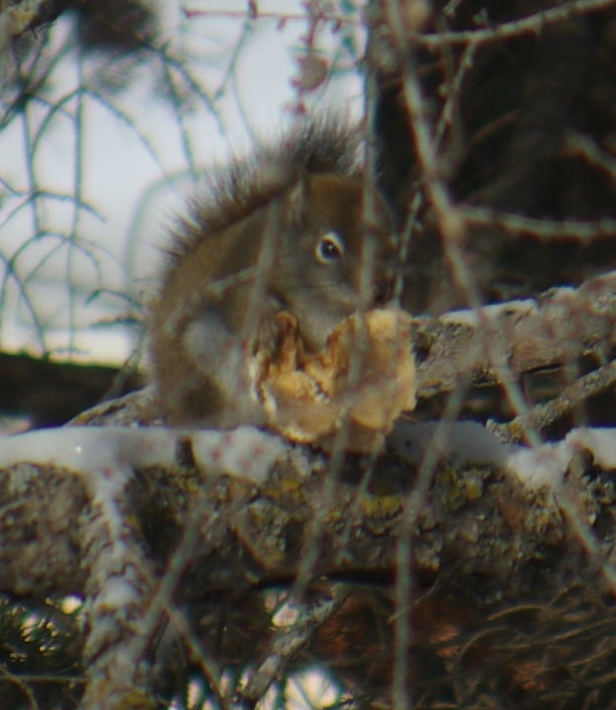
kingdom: Animalia
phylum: Chordata
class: Mammalia
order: Rodentia
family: Sciuridae
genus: Tamiasciurus
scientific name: Tamiasciurus hudsonicus
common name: Red squirrel
